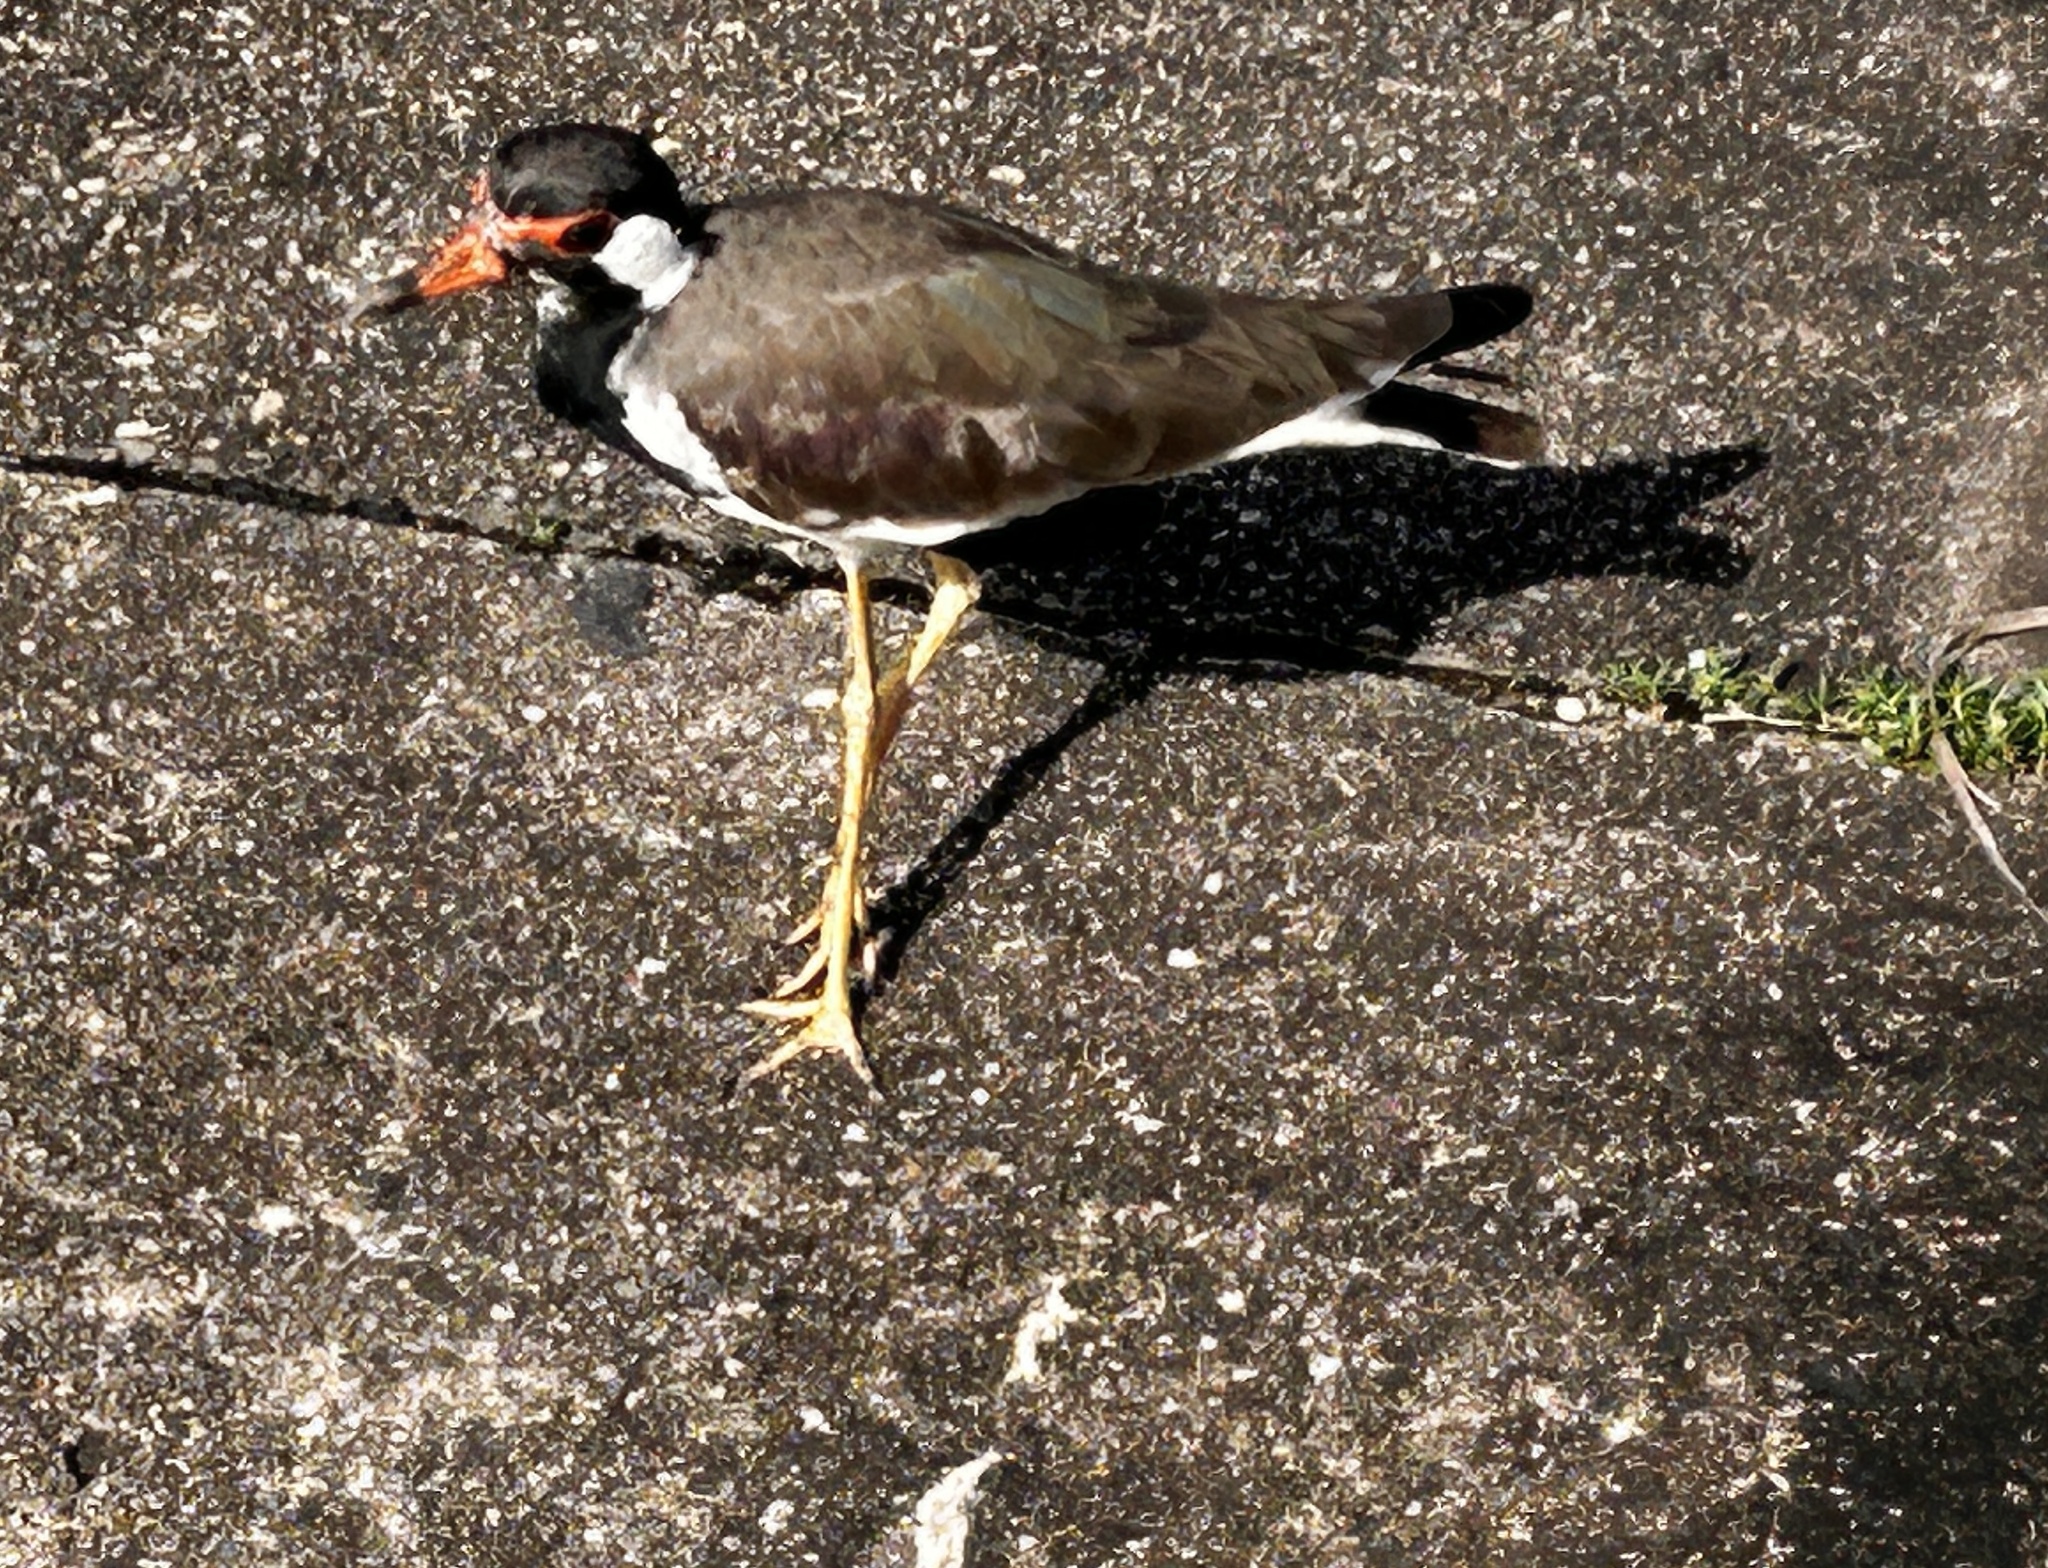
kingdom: Animalia
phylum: Chordata
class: Aves
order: Charadriiformes
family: Charadriidae
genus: Vanellus
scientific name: Vanellus indicus
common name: Red-wattled lapwing
